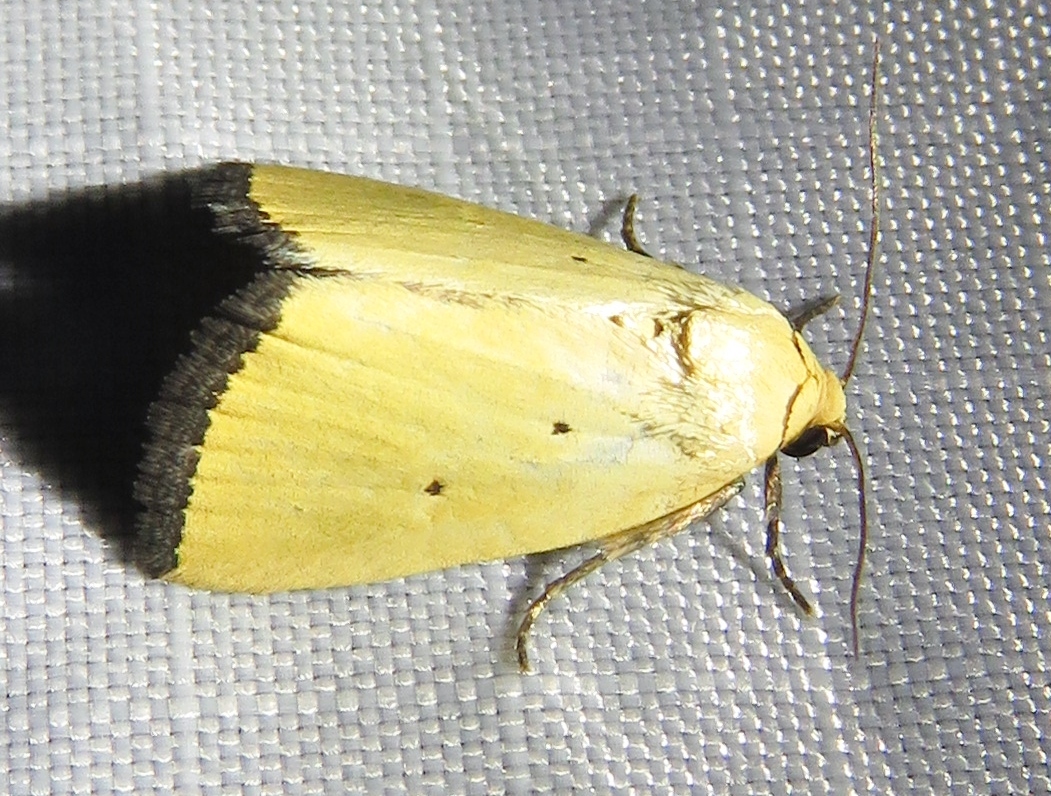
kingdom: Animalia
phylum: Arthropoda
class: Insecta
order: Lepidoptera
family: Noctuidae
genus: Marimatha
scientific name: Marimatha nigrofimbria
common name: Black-bordered lemon moth
